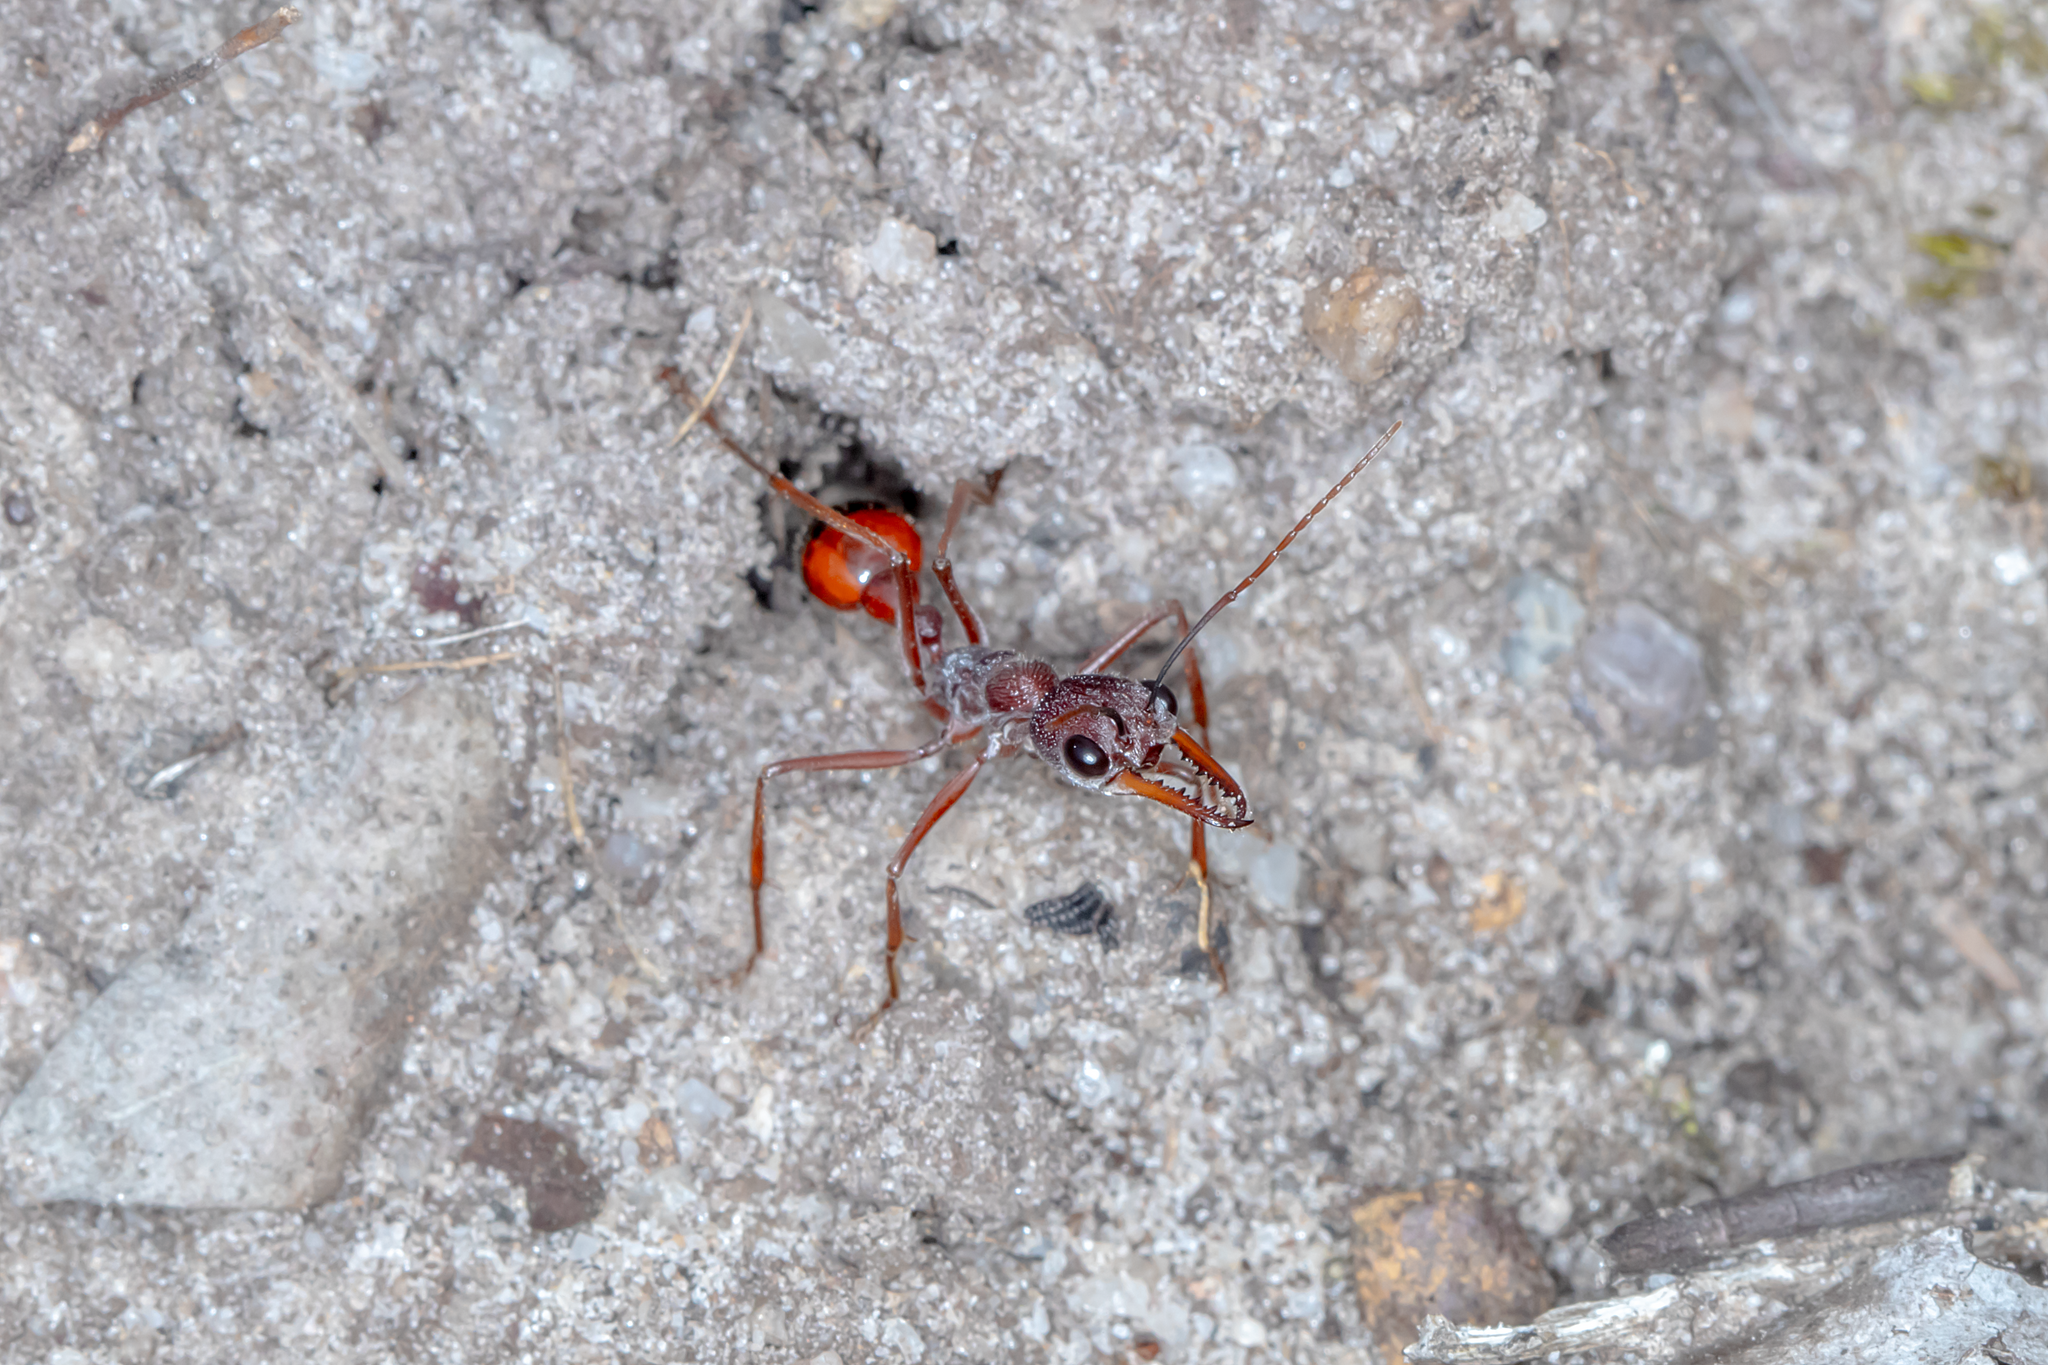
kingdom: Animalia
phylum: Arthropoda
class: Insecta
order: Hymenoptera
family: Formicidae
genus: Myrmecia
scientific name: Myrmecia nigriscapa
